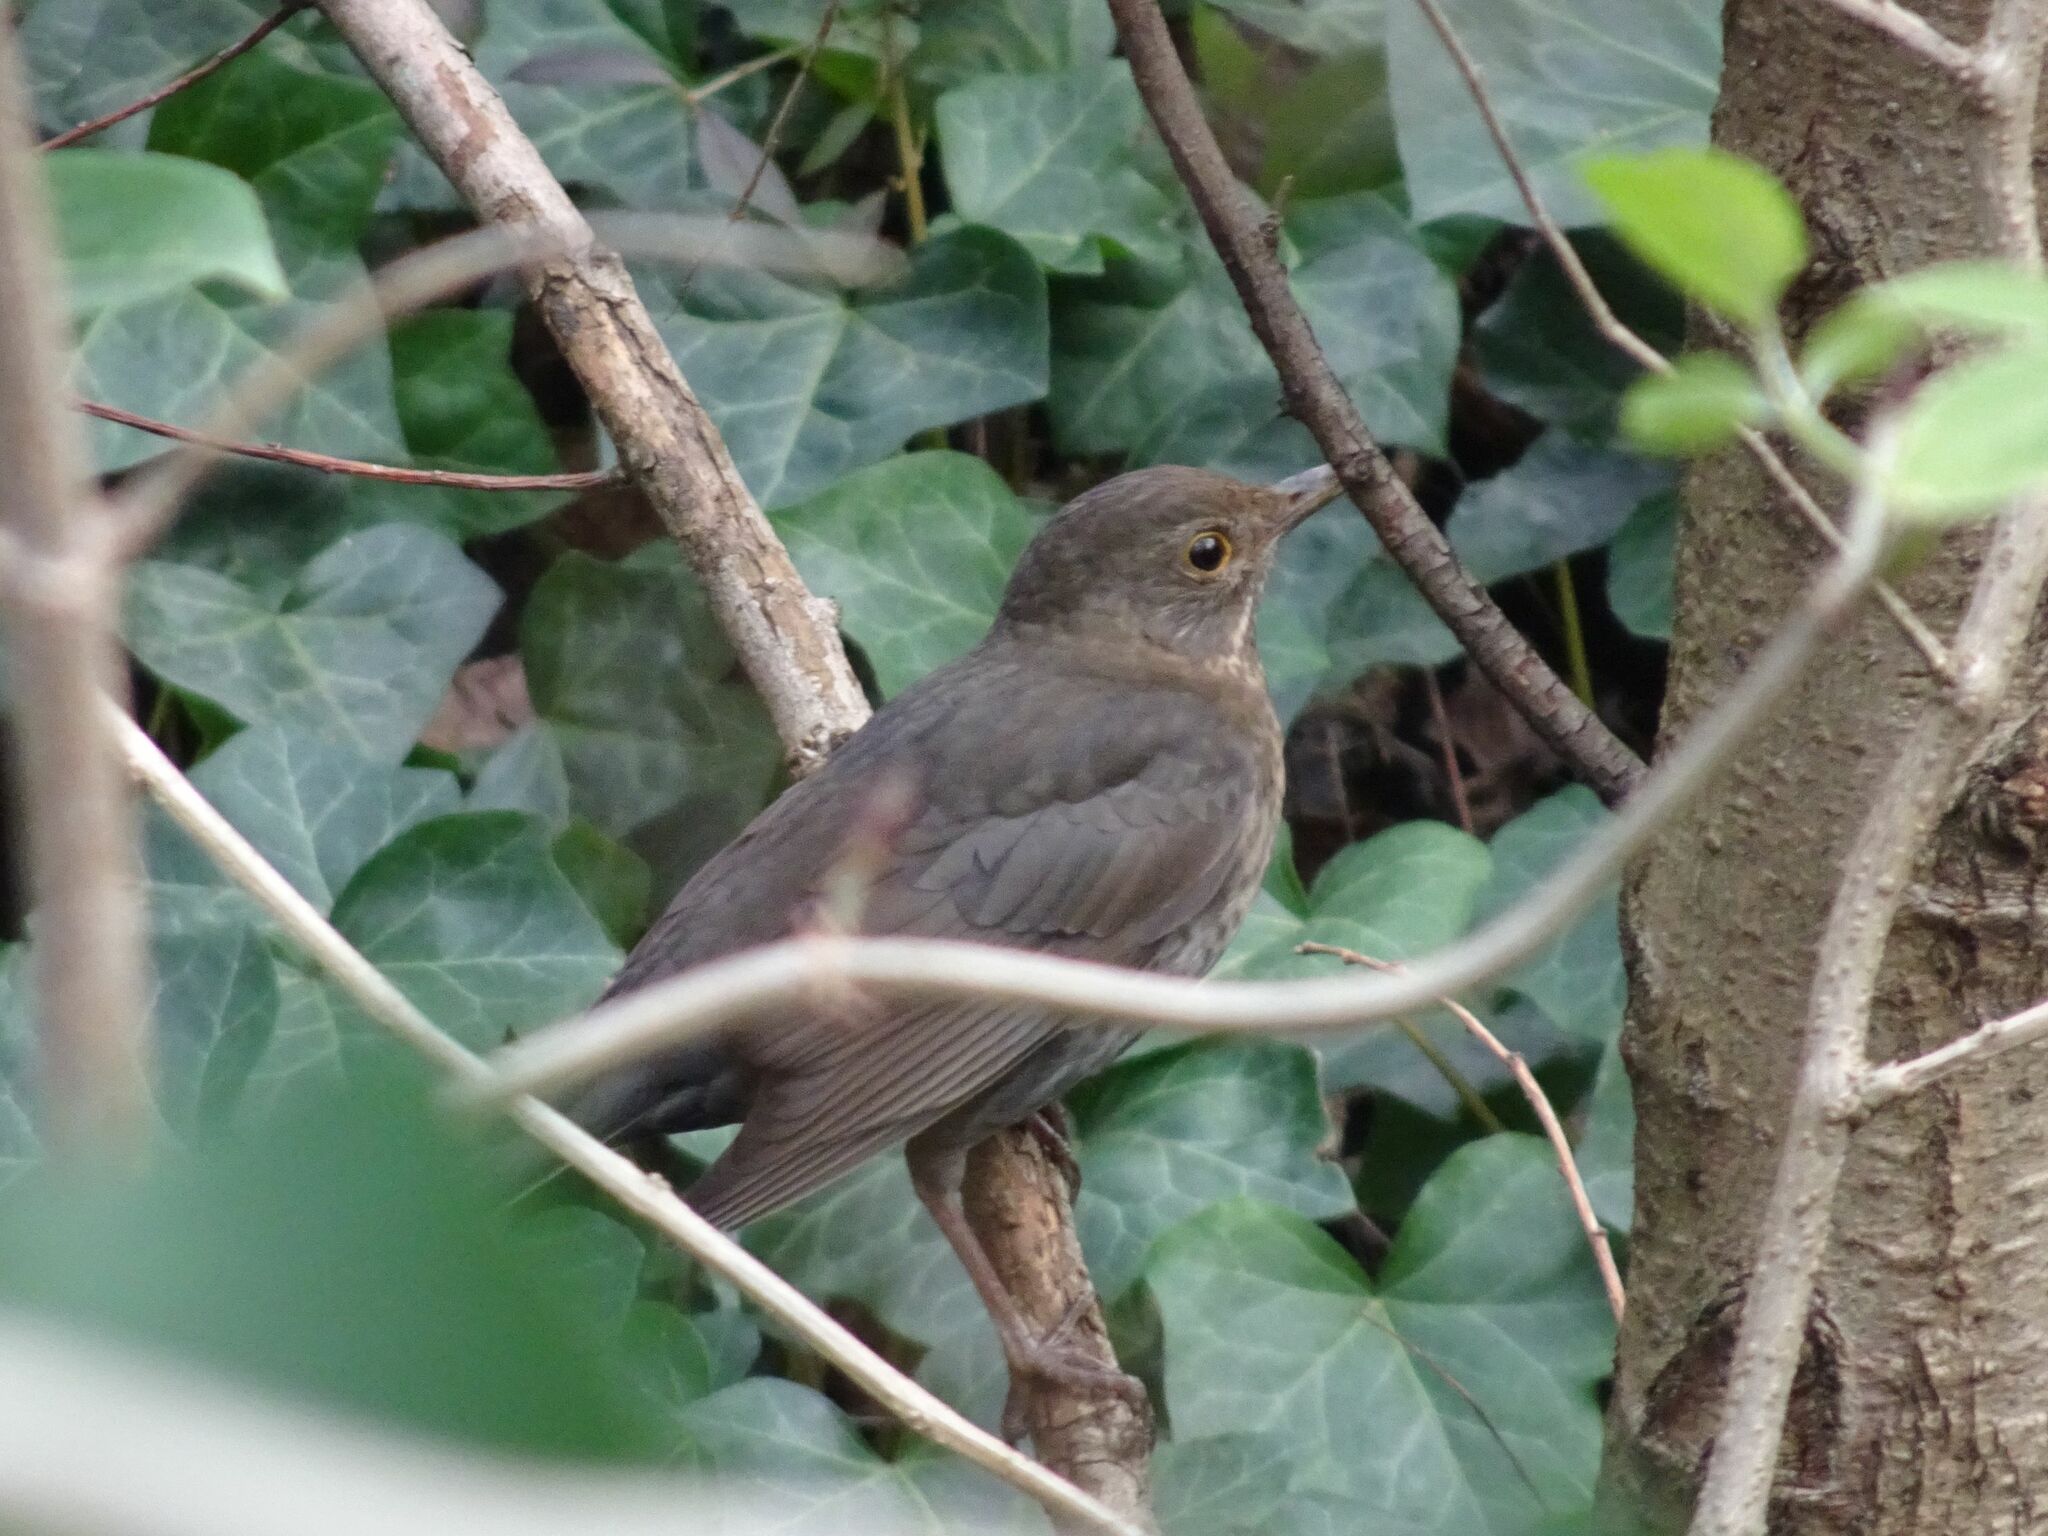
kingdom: Animalia
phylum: Chordata
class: Aves
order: Passeriformes
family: Turdidae
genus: Turdus
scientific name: Turdus merula
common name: Common blackbird
